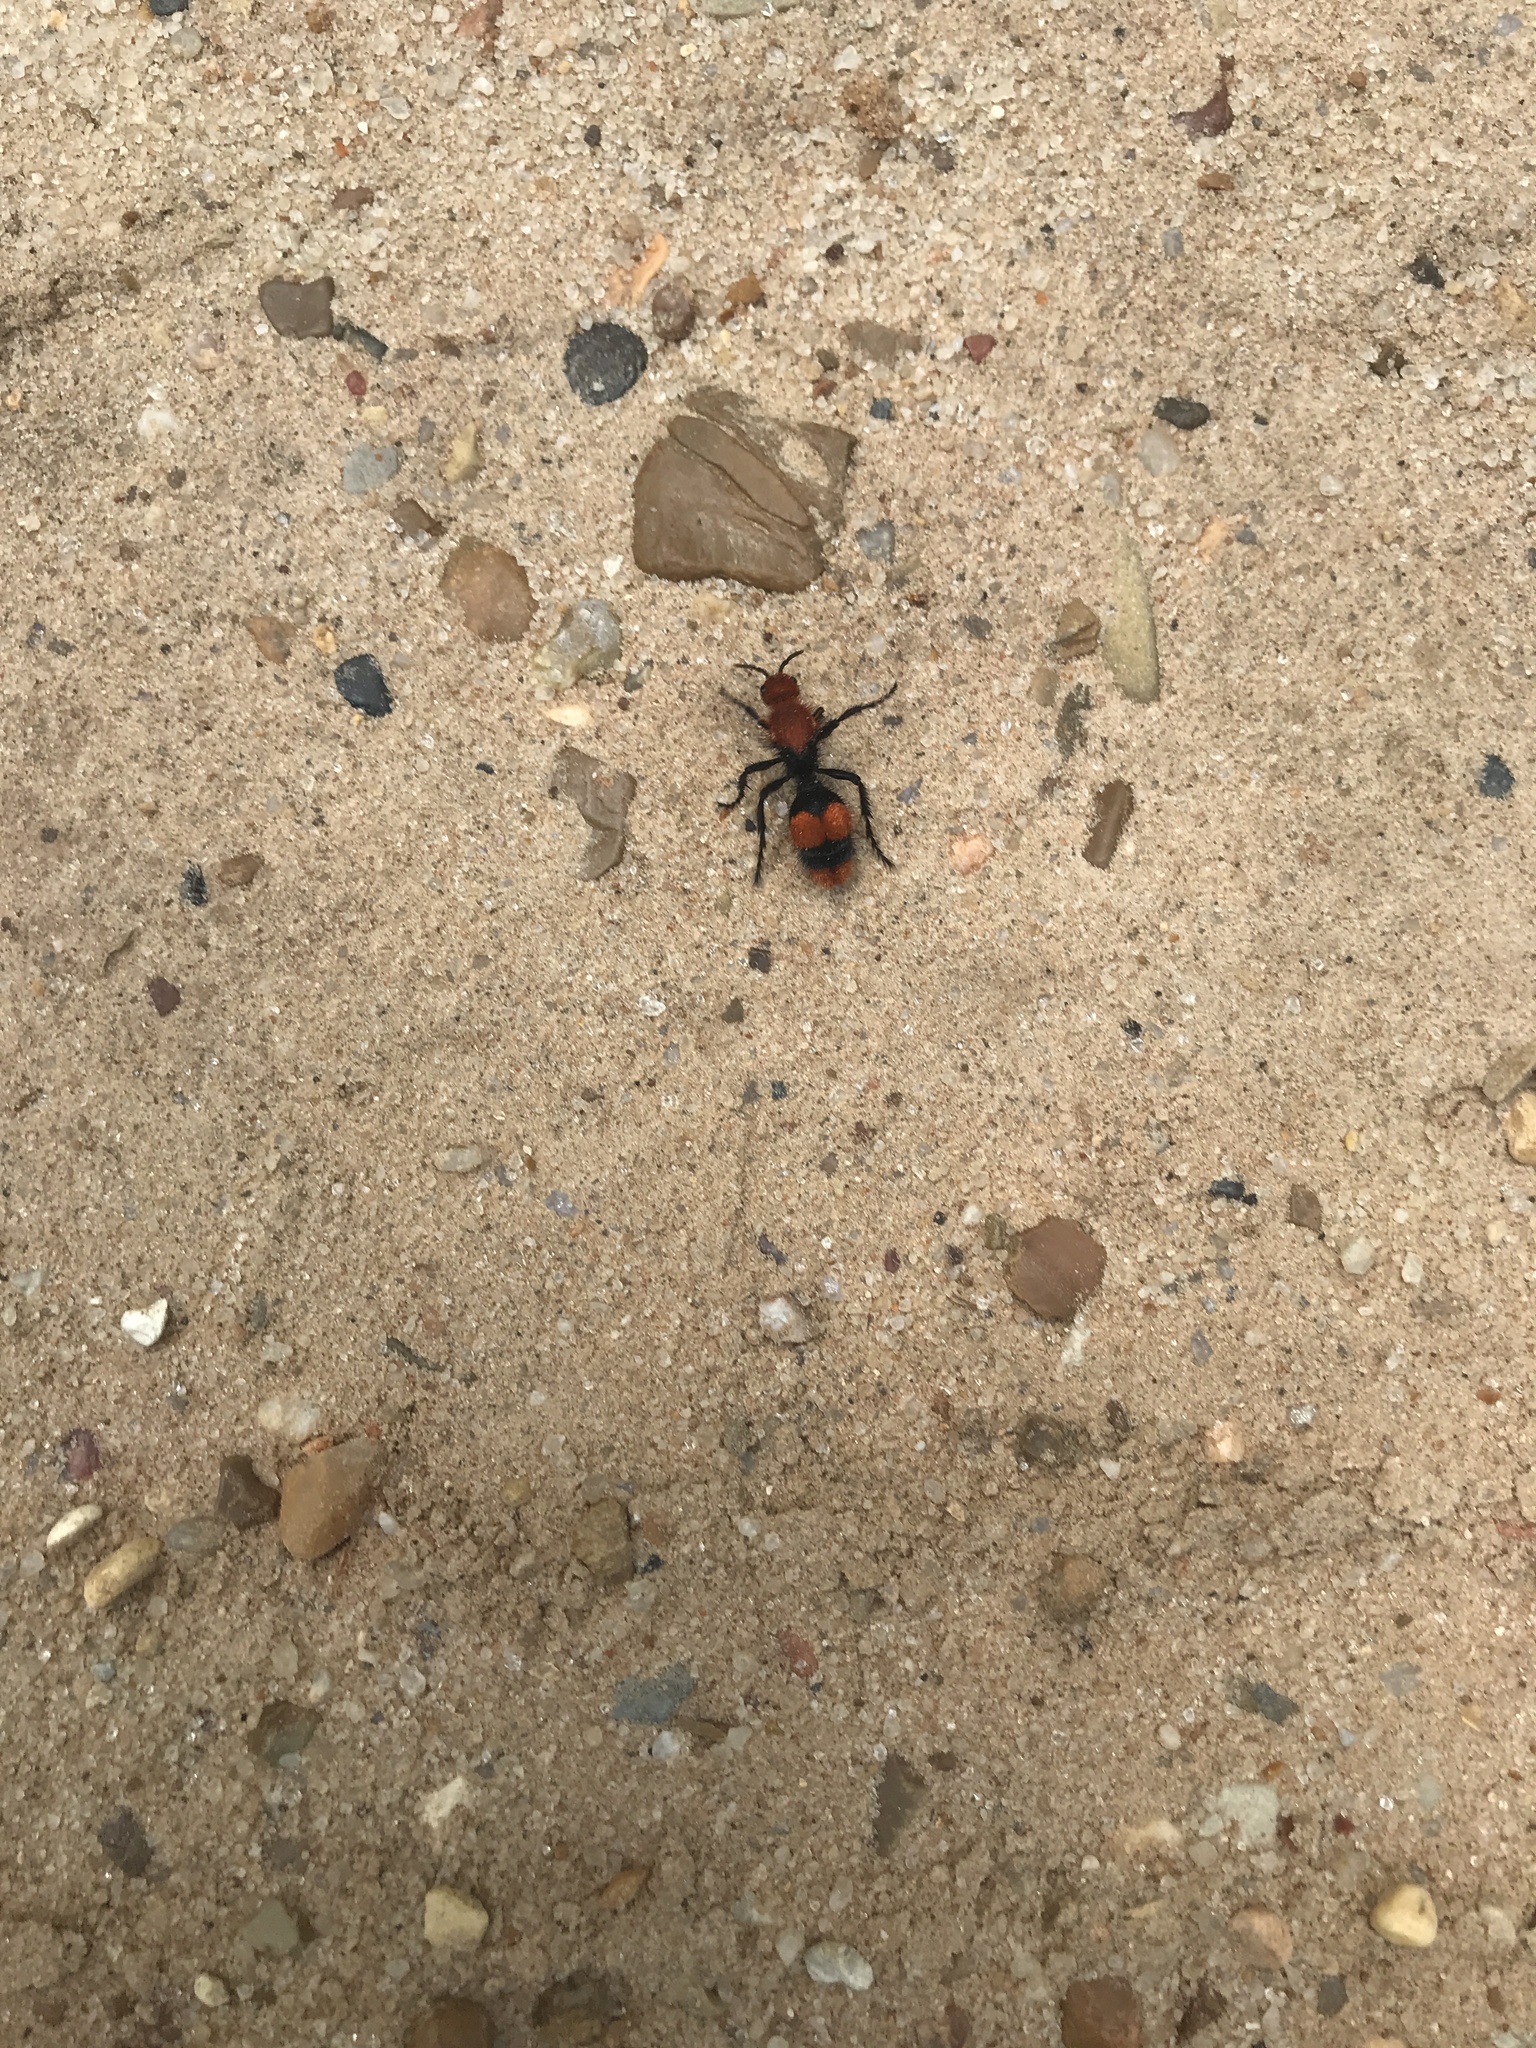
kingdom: Animalia
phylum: Arthropoda
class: Insecta
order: Hymenoptera
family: Mutillidae
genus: Dasymutilla
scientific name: Dasymutilla occidentalis
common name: Common eastern velvet ant
